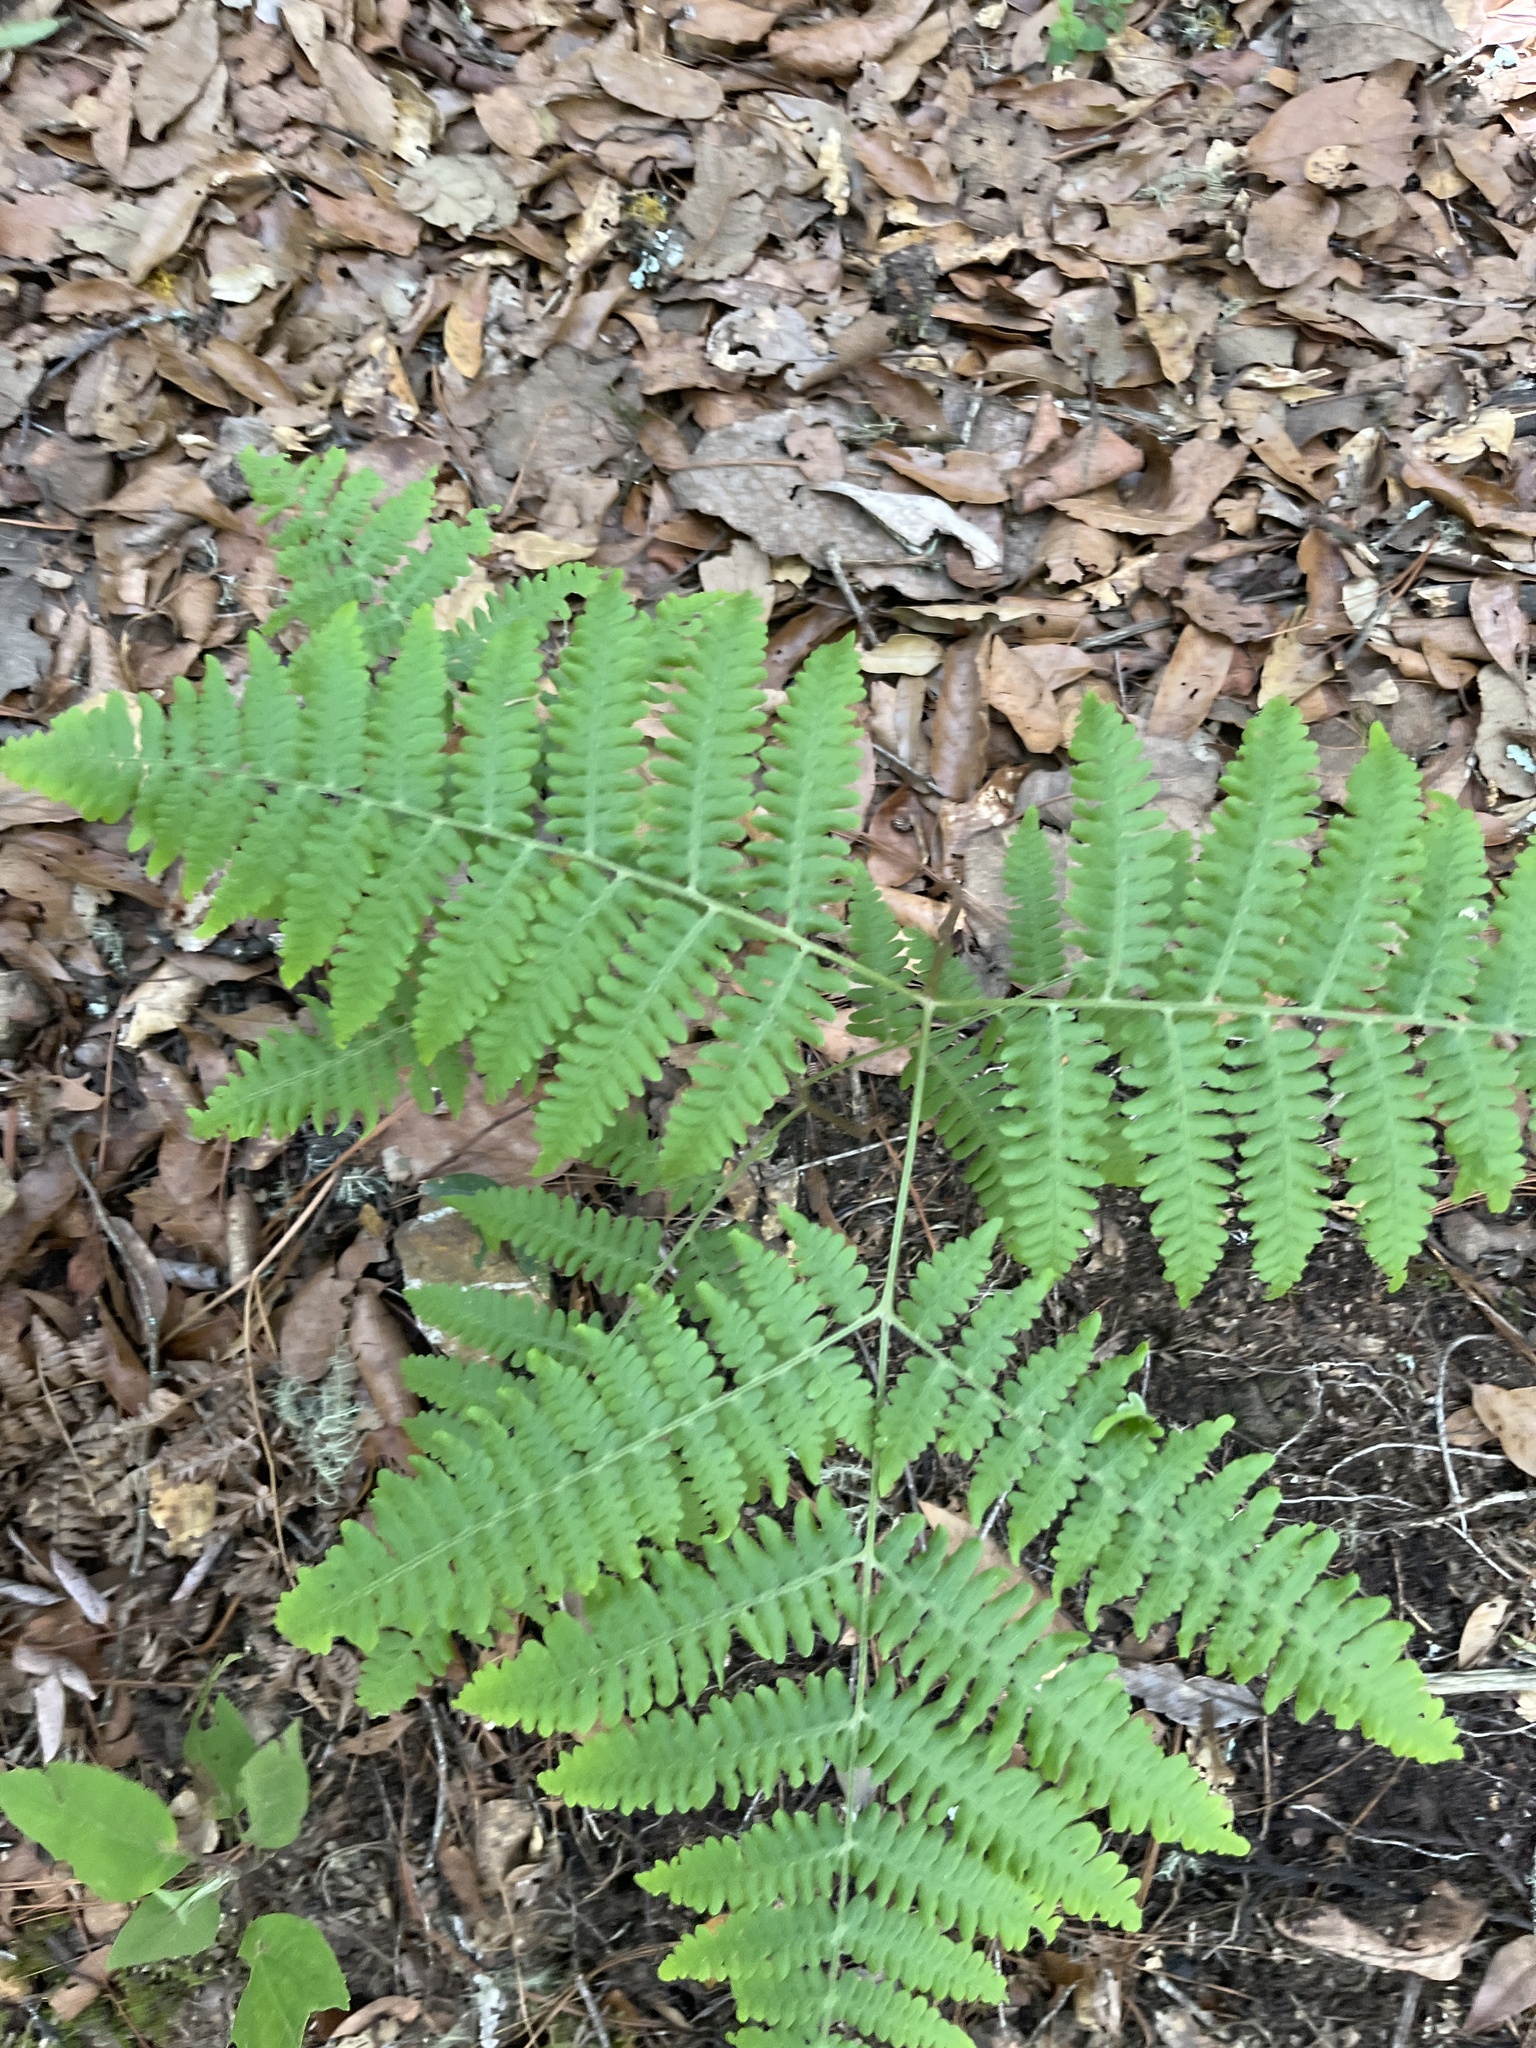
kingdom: Plantae
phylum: Tracheophyta
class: Polypodiopsida
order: Polypodiales
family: Dennstaedtiaceae
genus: Pteridium
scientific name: Pteridium aquilinum
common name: Bracken
